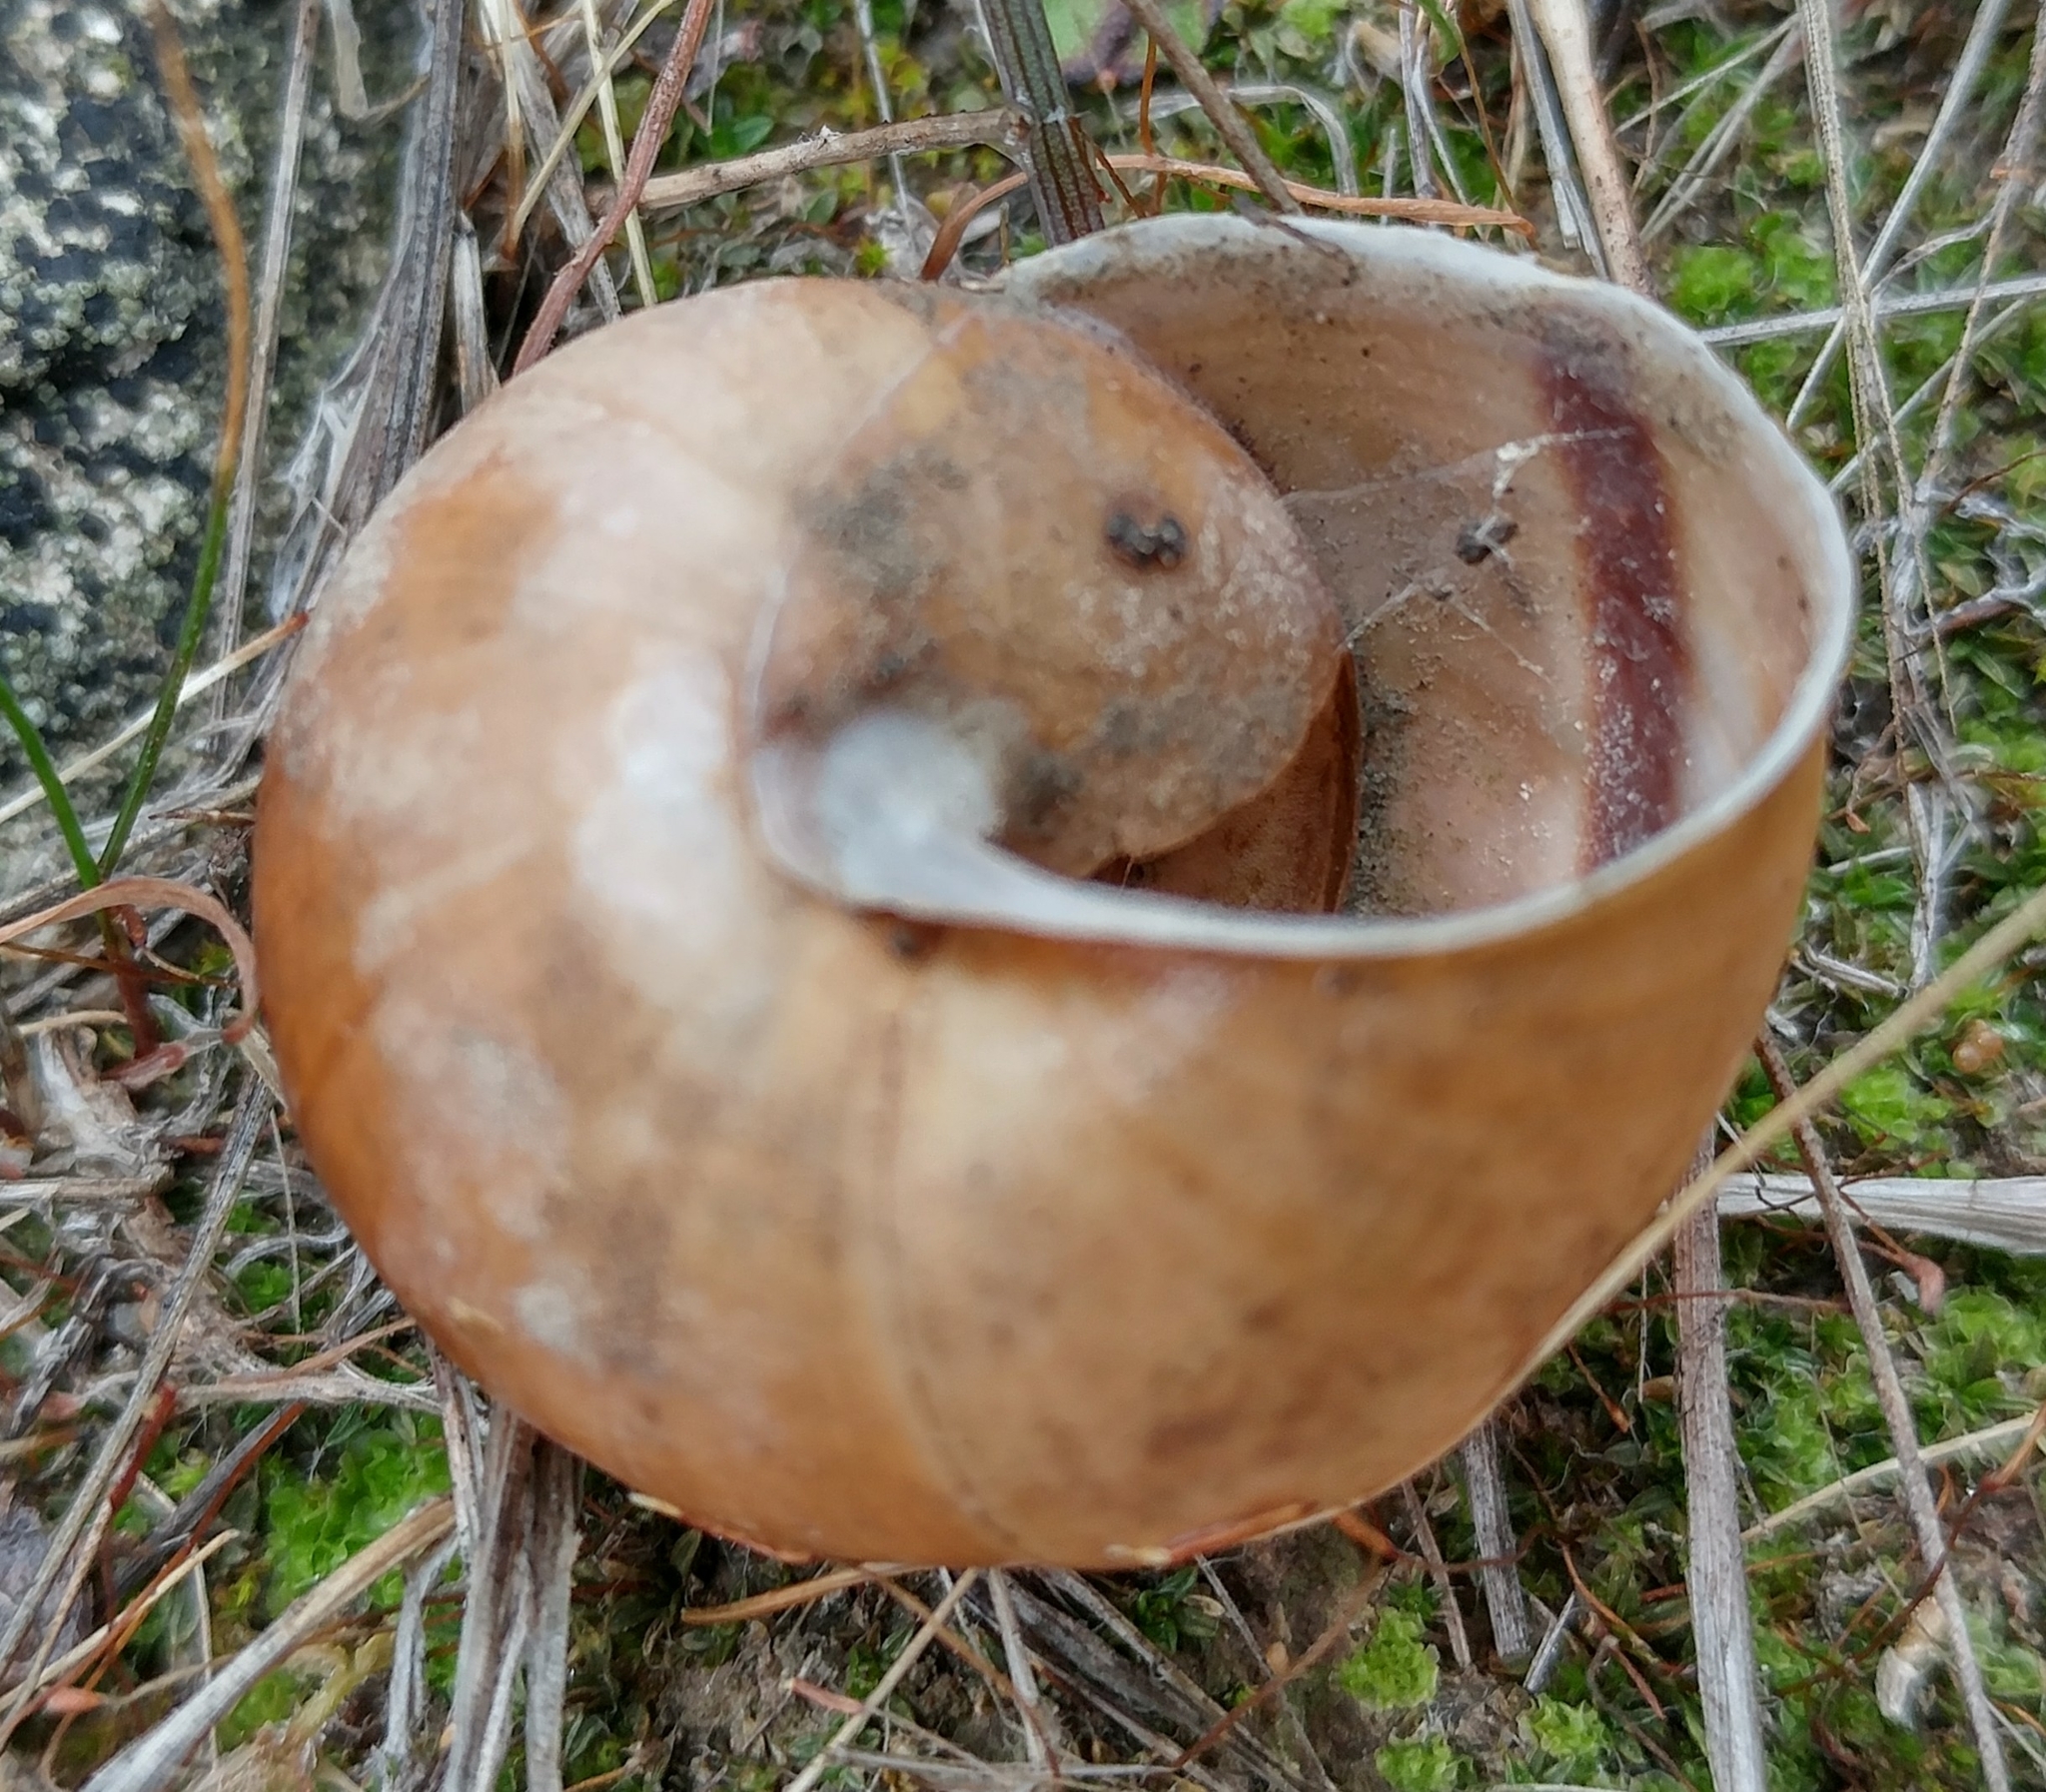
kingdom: Animalia
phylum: Mollusca
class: Gastropoda
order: Stylommatophora
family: Xanthonychidae
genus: Helminthoglypta
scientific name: Helminthoglypta tudiculata
